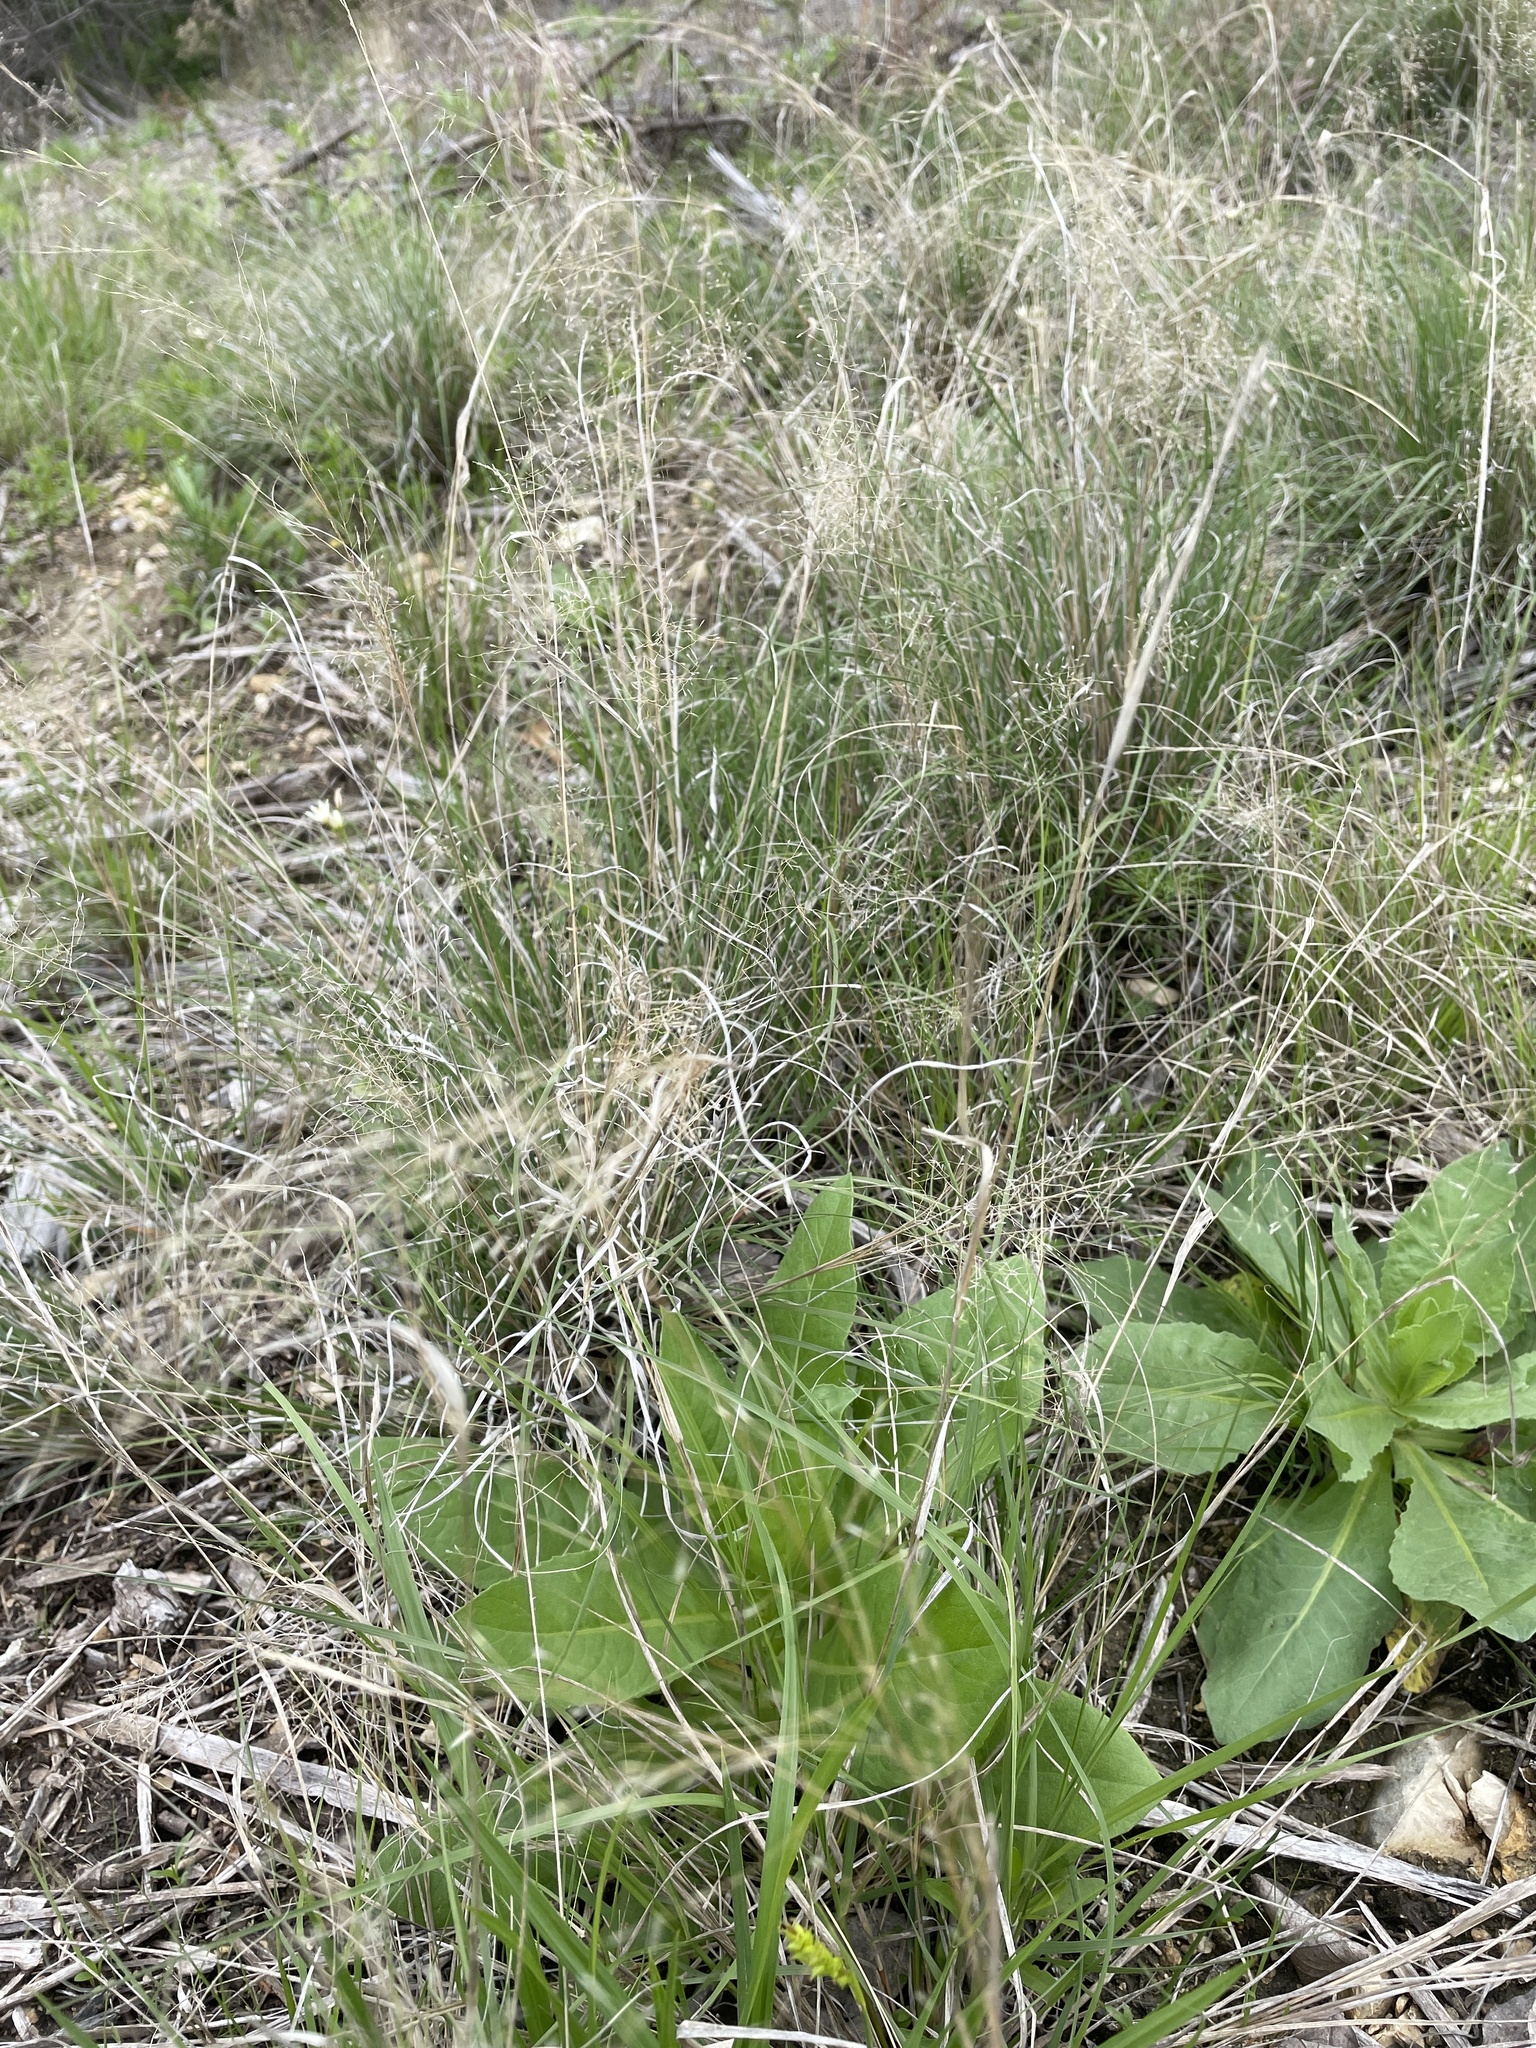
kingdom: Plantae
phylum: Tracheophyta
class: Liliopsida
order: Poales
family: Poaceae
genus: Muhlenbergia
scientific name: Muhlenbergia reverchonii
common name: Seep muhly
